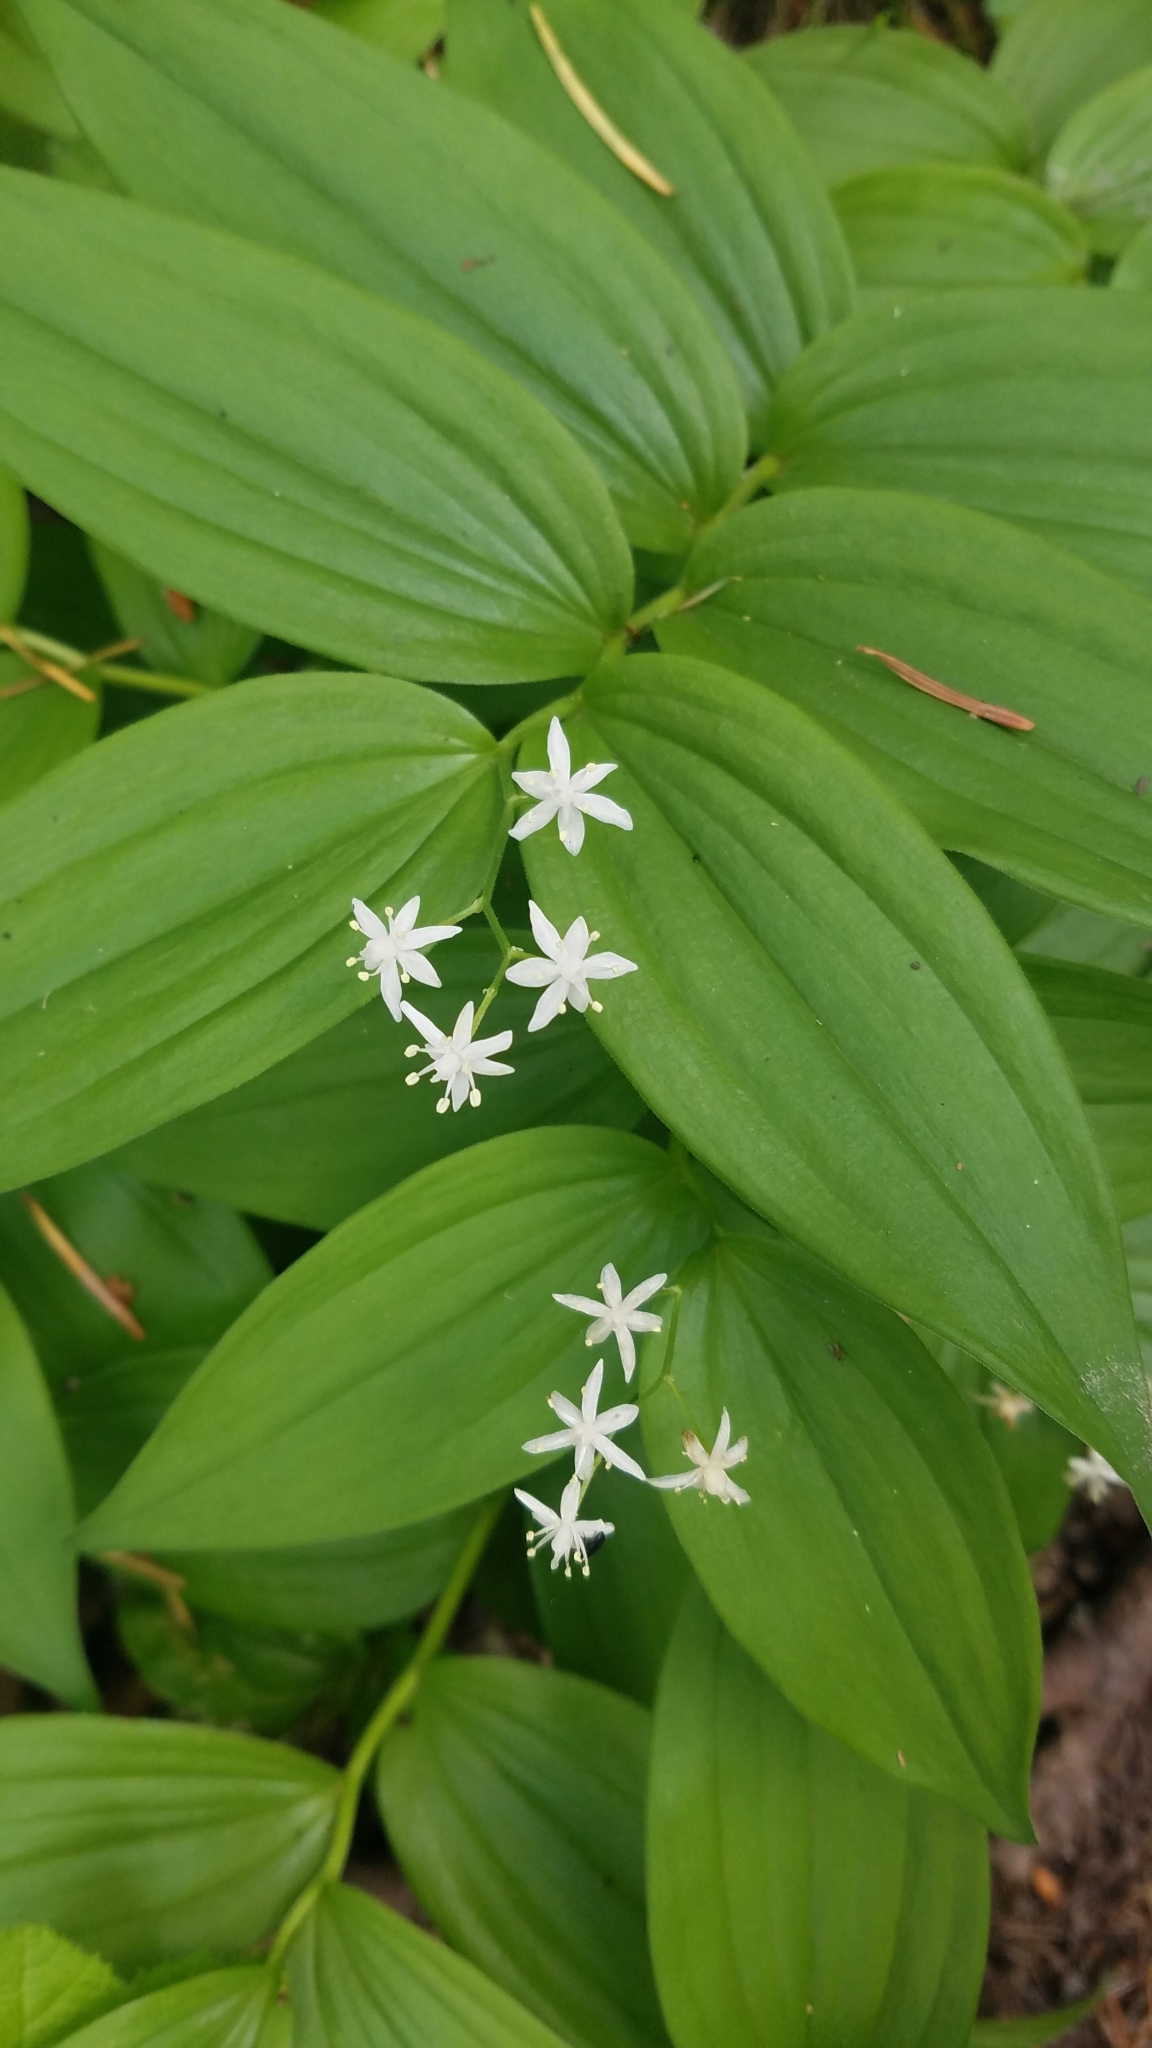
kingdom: Plantae
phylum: Tracheophyta
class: Liliopsida
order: Asparagales
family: Asparagaceae
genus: Maianthemum
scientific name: Maianthemum stellatum
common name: Little false solomon's seal
